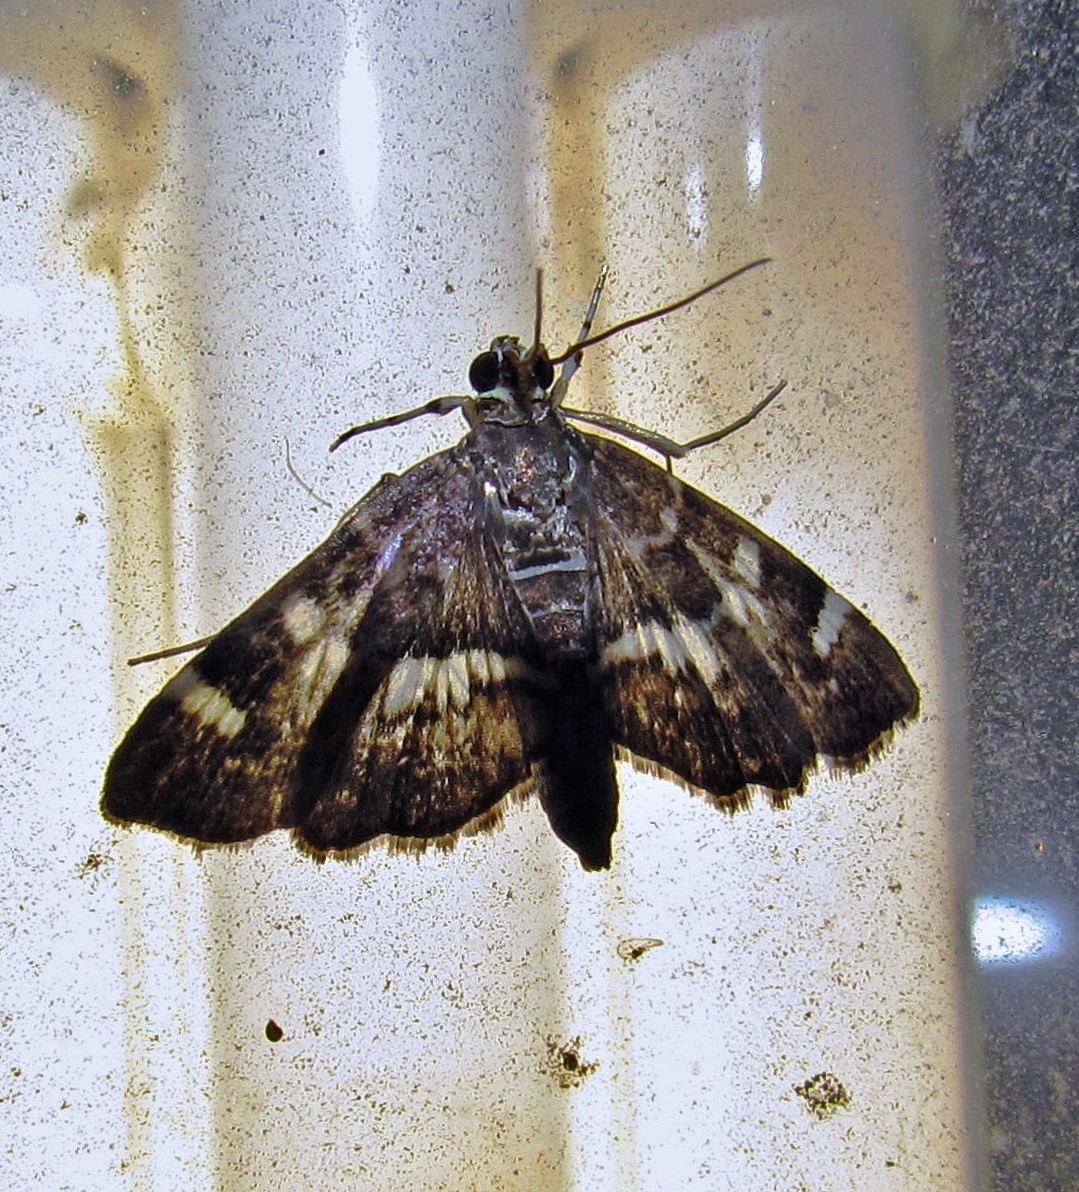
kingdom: Animalia
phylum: Arthropoda
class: Insecta
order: Lepidoptera
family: Crambidae
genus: Hymenia
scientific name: Hymenia perspectalis
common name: Spotted beet webworm
